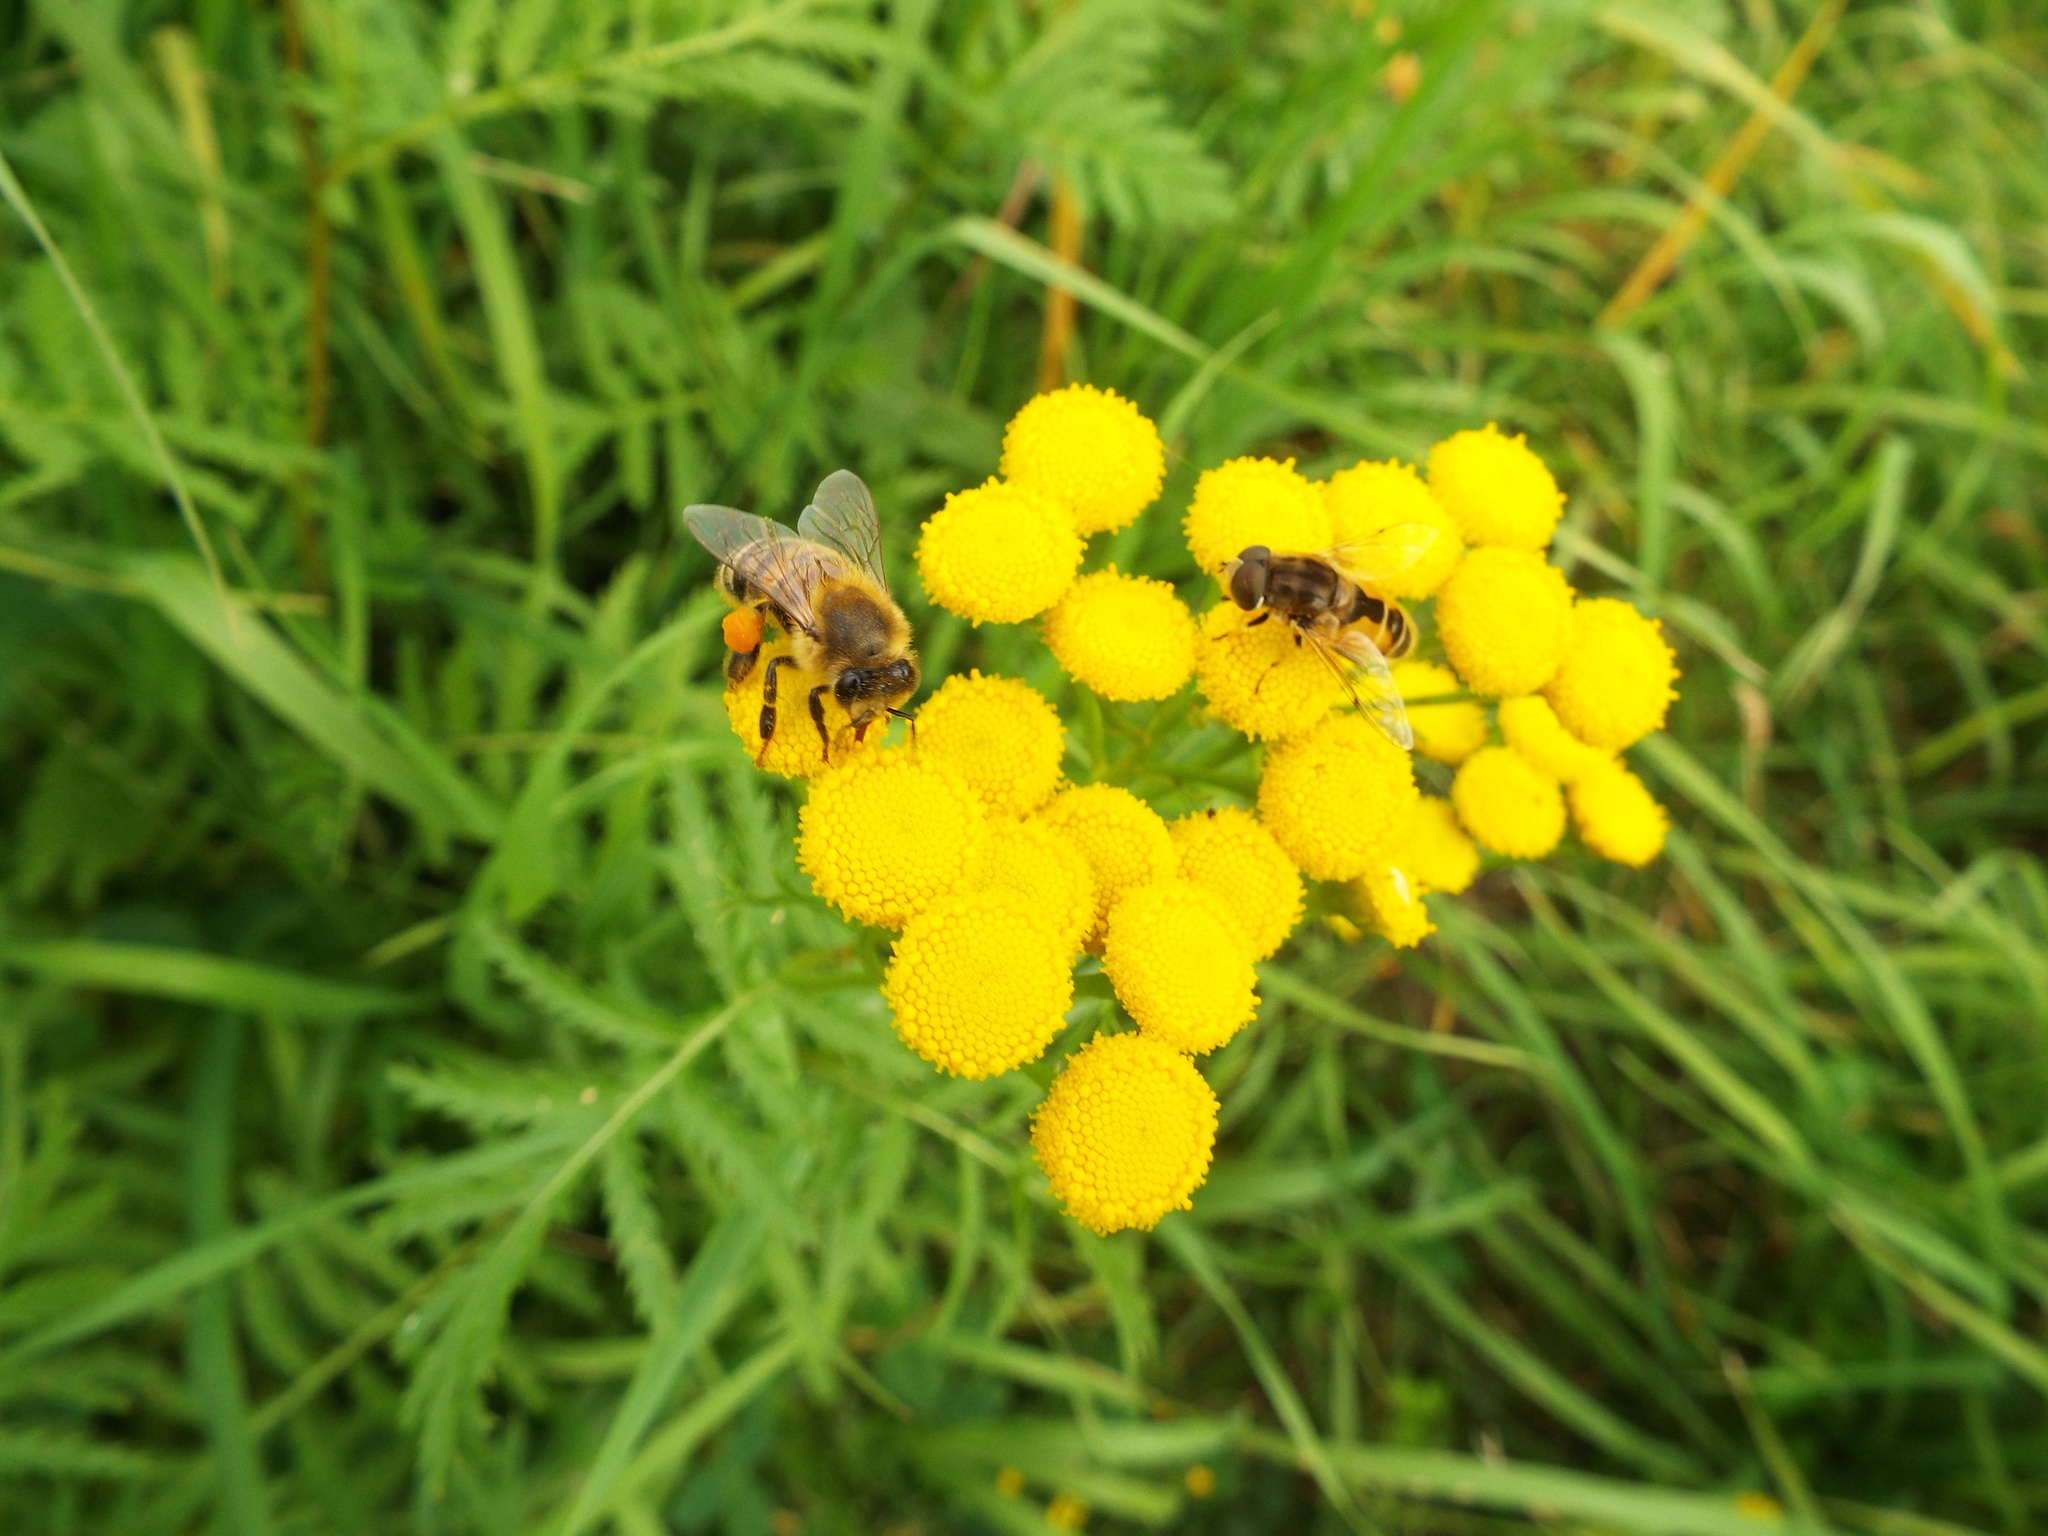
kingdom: Animalia
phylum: Arthropoda
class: Insecta
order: Hymenoptera
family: Apidae
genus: Apis
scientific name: Apis mellifera
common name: Honey bee
